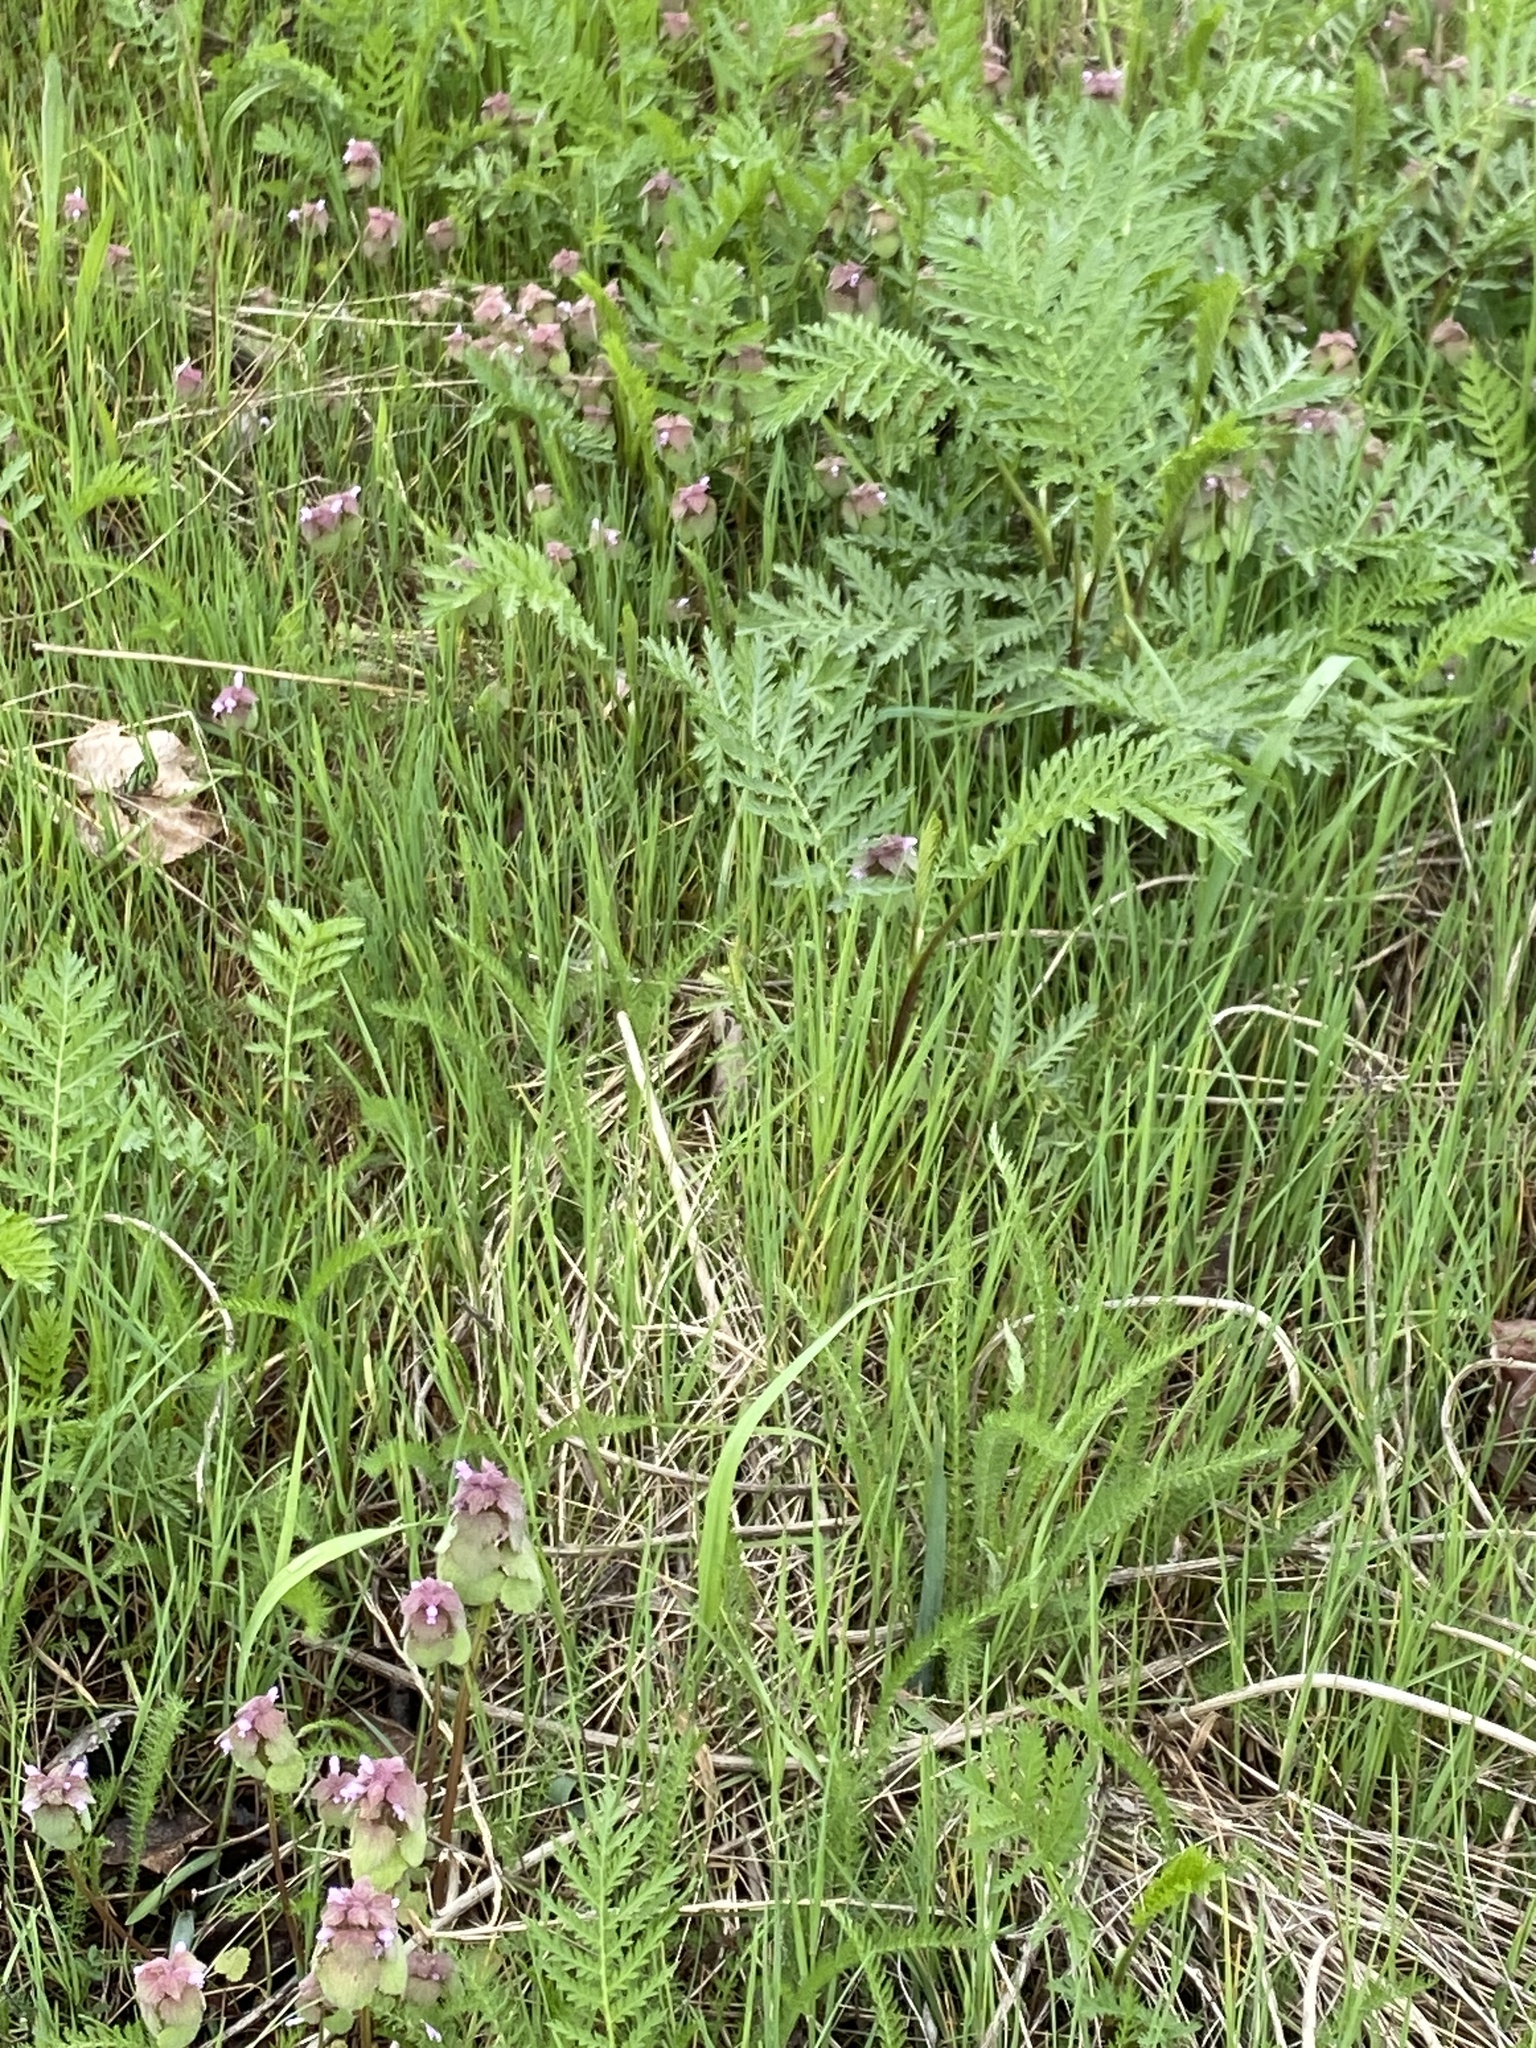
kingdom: Plantae
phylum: Tracheophyta
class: Magnoliopsida
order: Asterales
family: Asteraceae
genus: Tanacetum
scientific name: Tanacetum vulgare
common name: Common tansy
